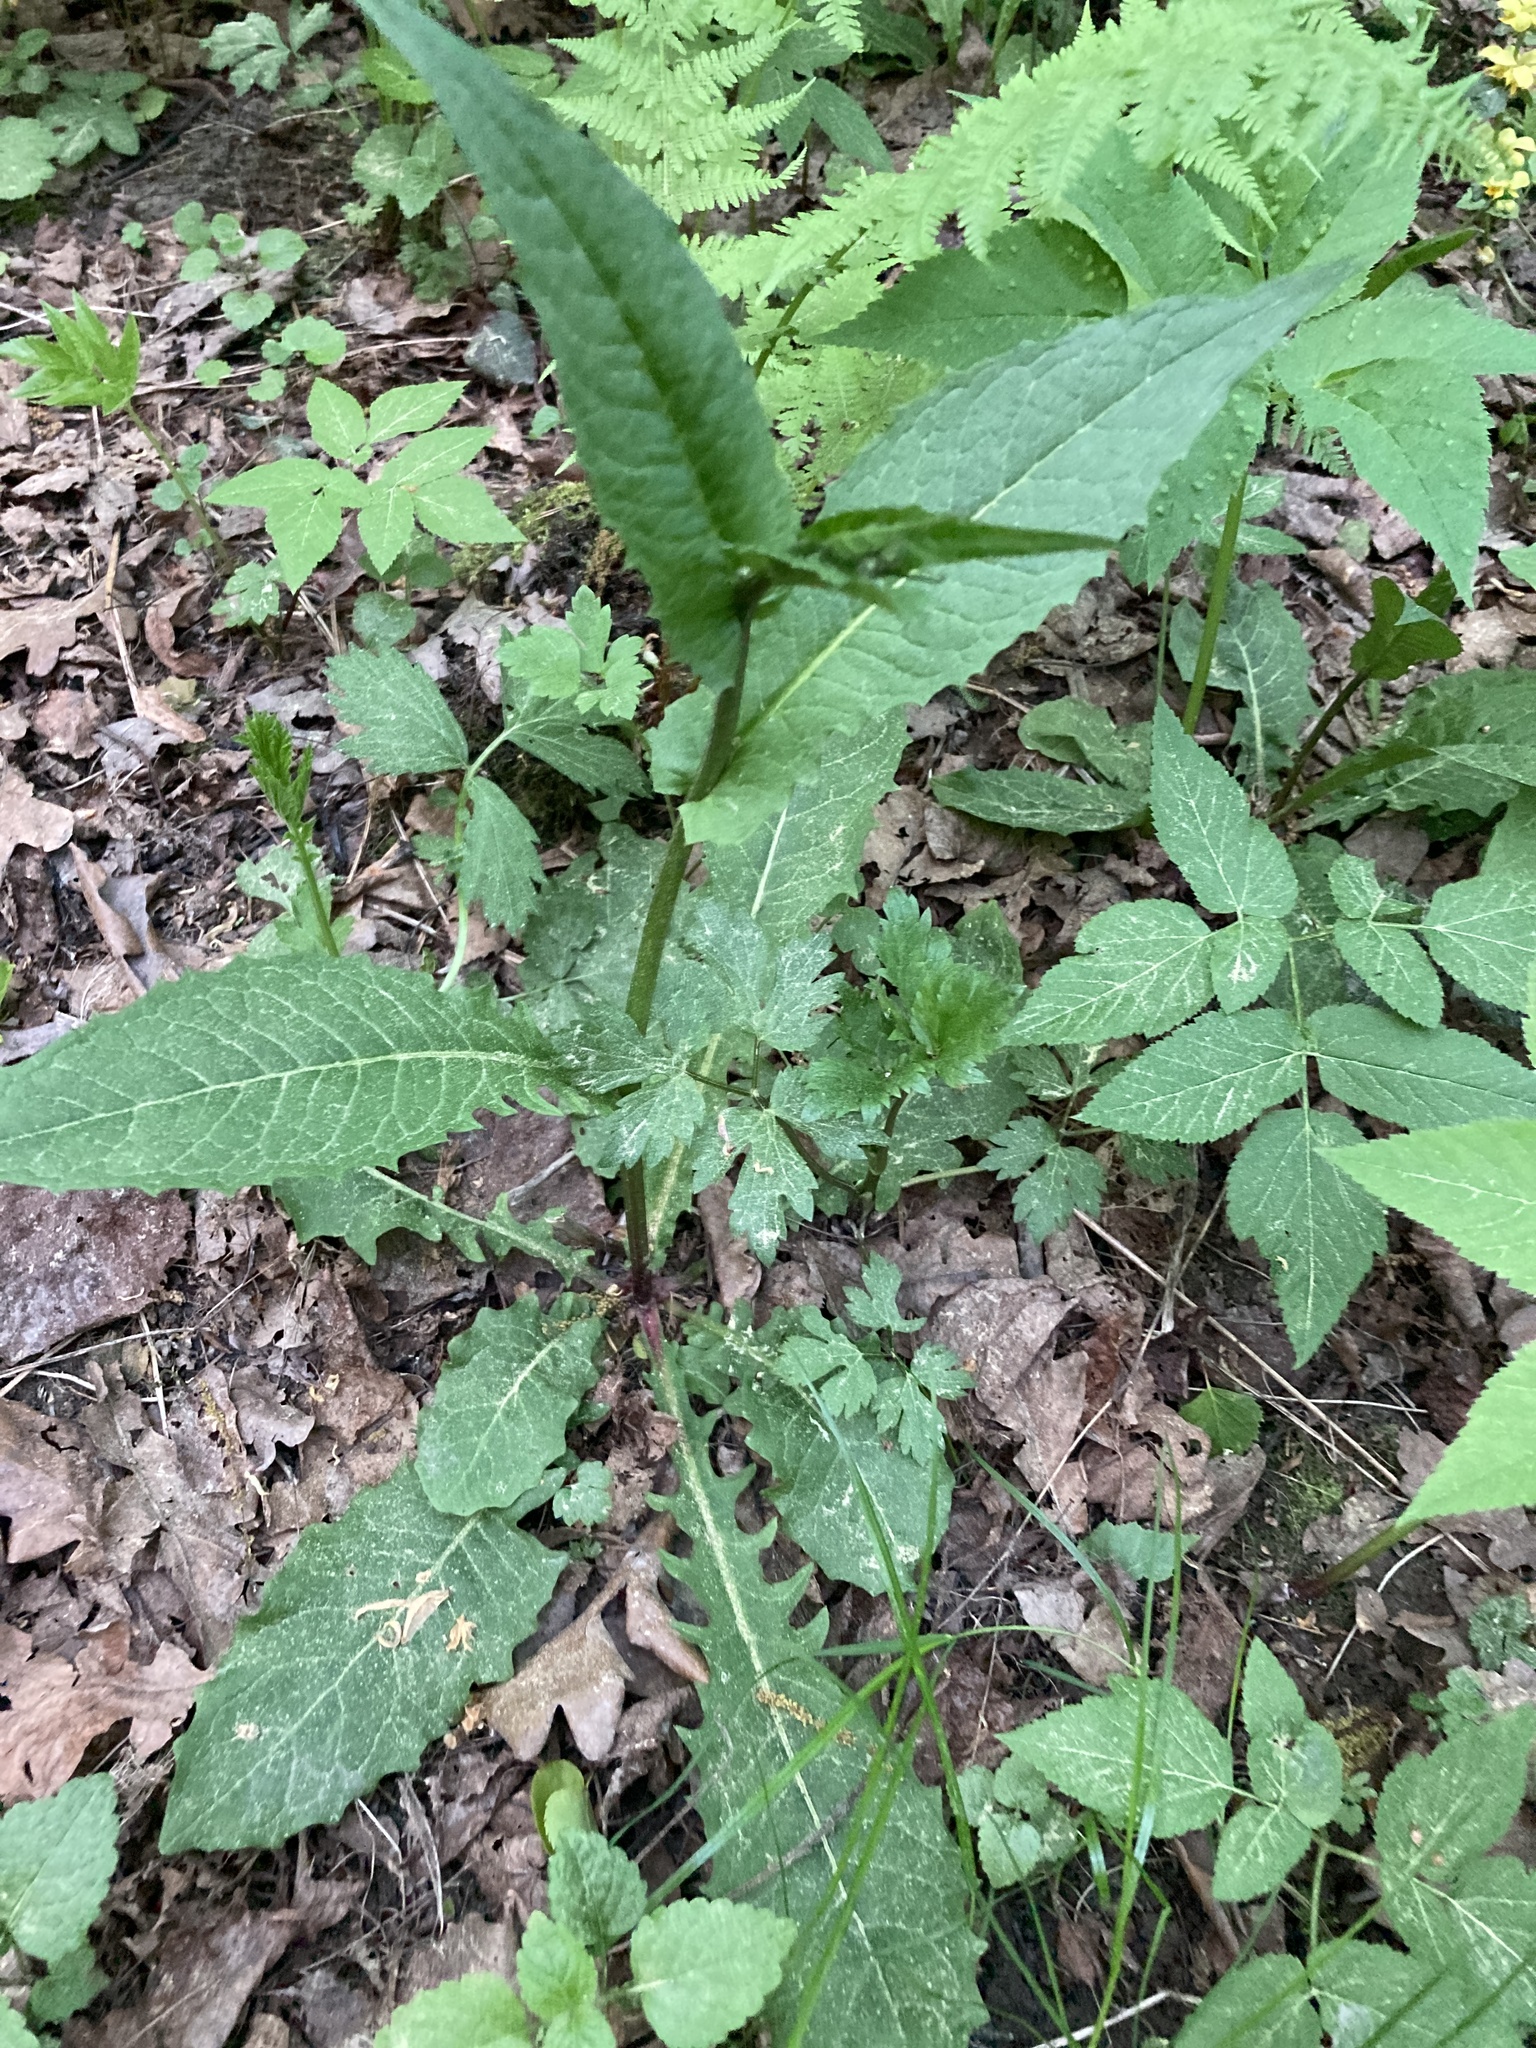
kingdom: Plantae
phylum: Tracheophyta
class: Magnoliopsida
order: Asterales
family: Asteraceae
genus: Crepis
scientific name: Crepis paludosa
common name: Marsh hawk's-beard
